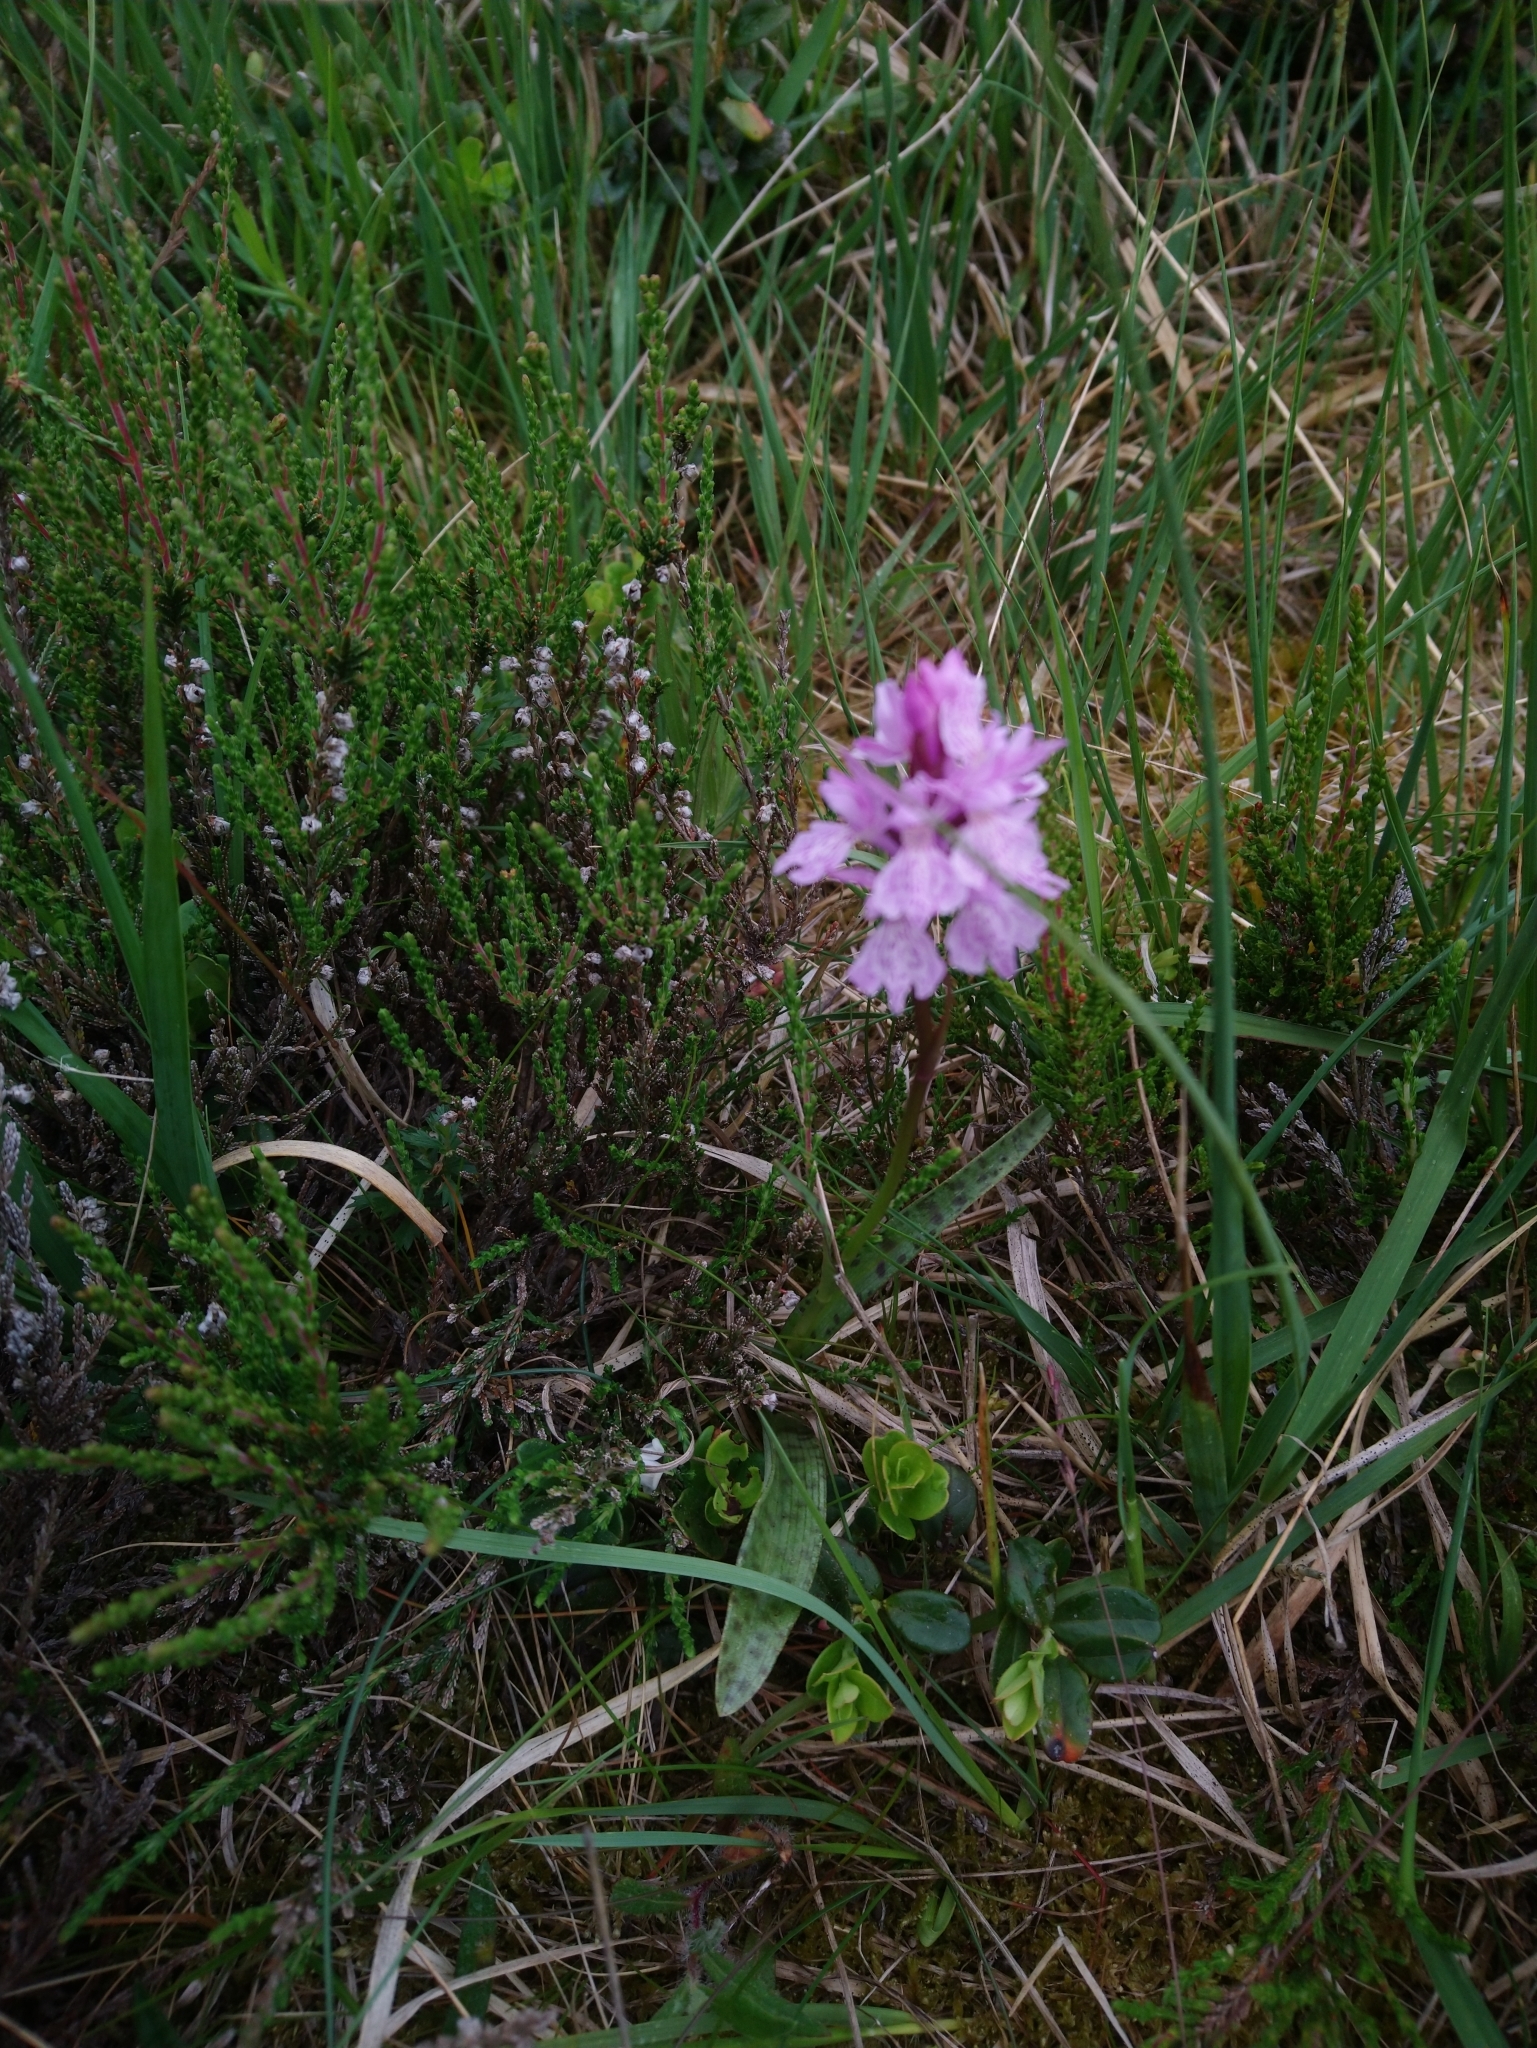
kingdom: Plantae
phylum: Tracheophyta
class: Liliopsida
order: Asparagales
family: Orchidaceae
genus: Dactylorhiza
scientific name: Dactylorhiza maculata
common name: Heath spotted-orchid
